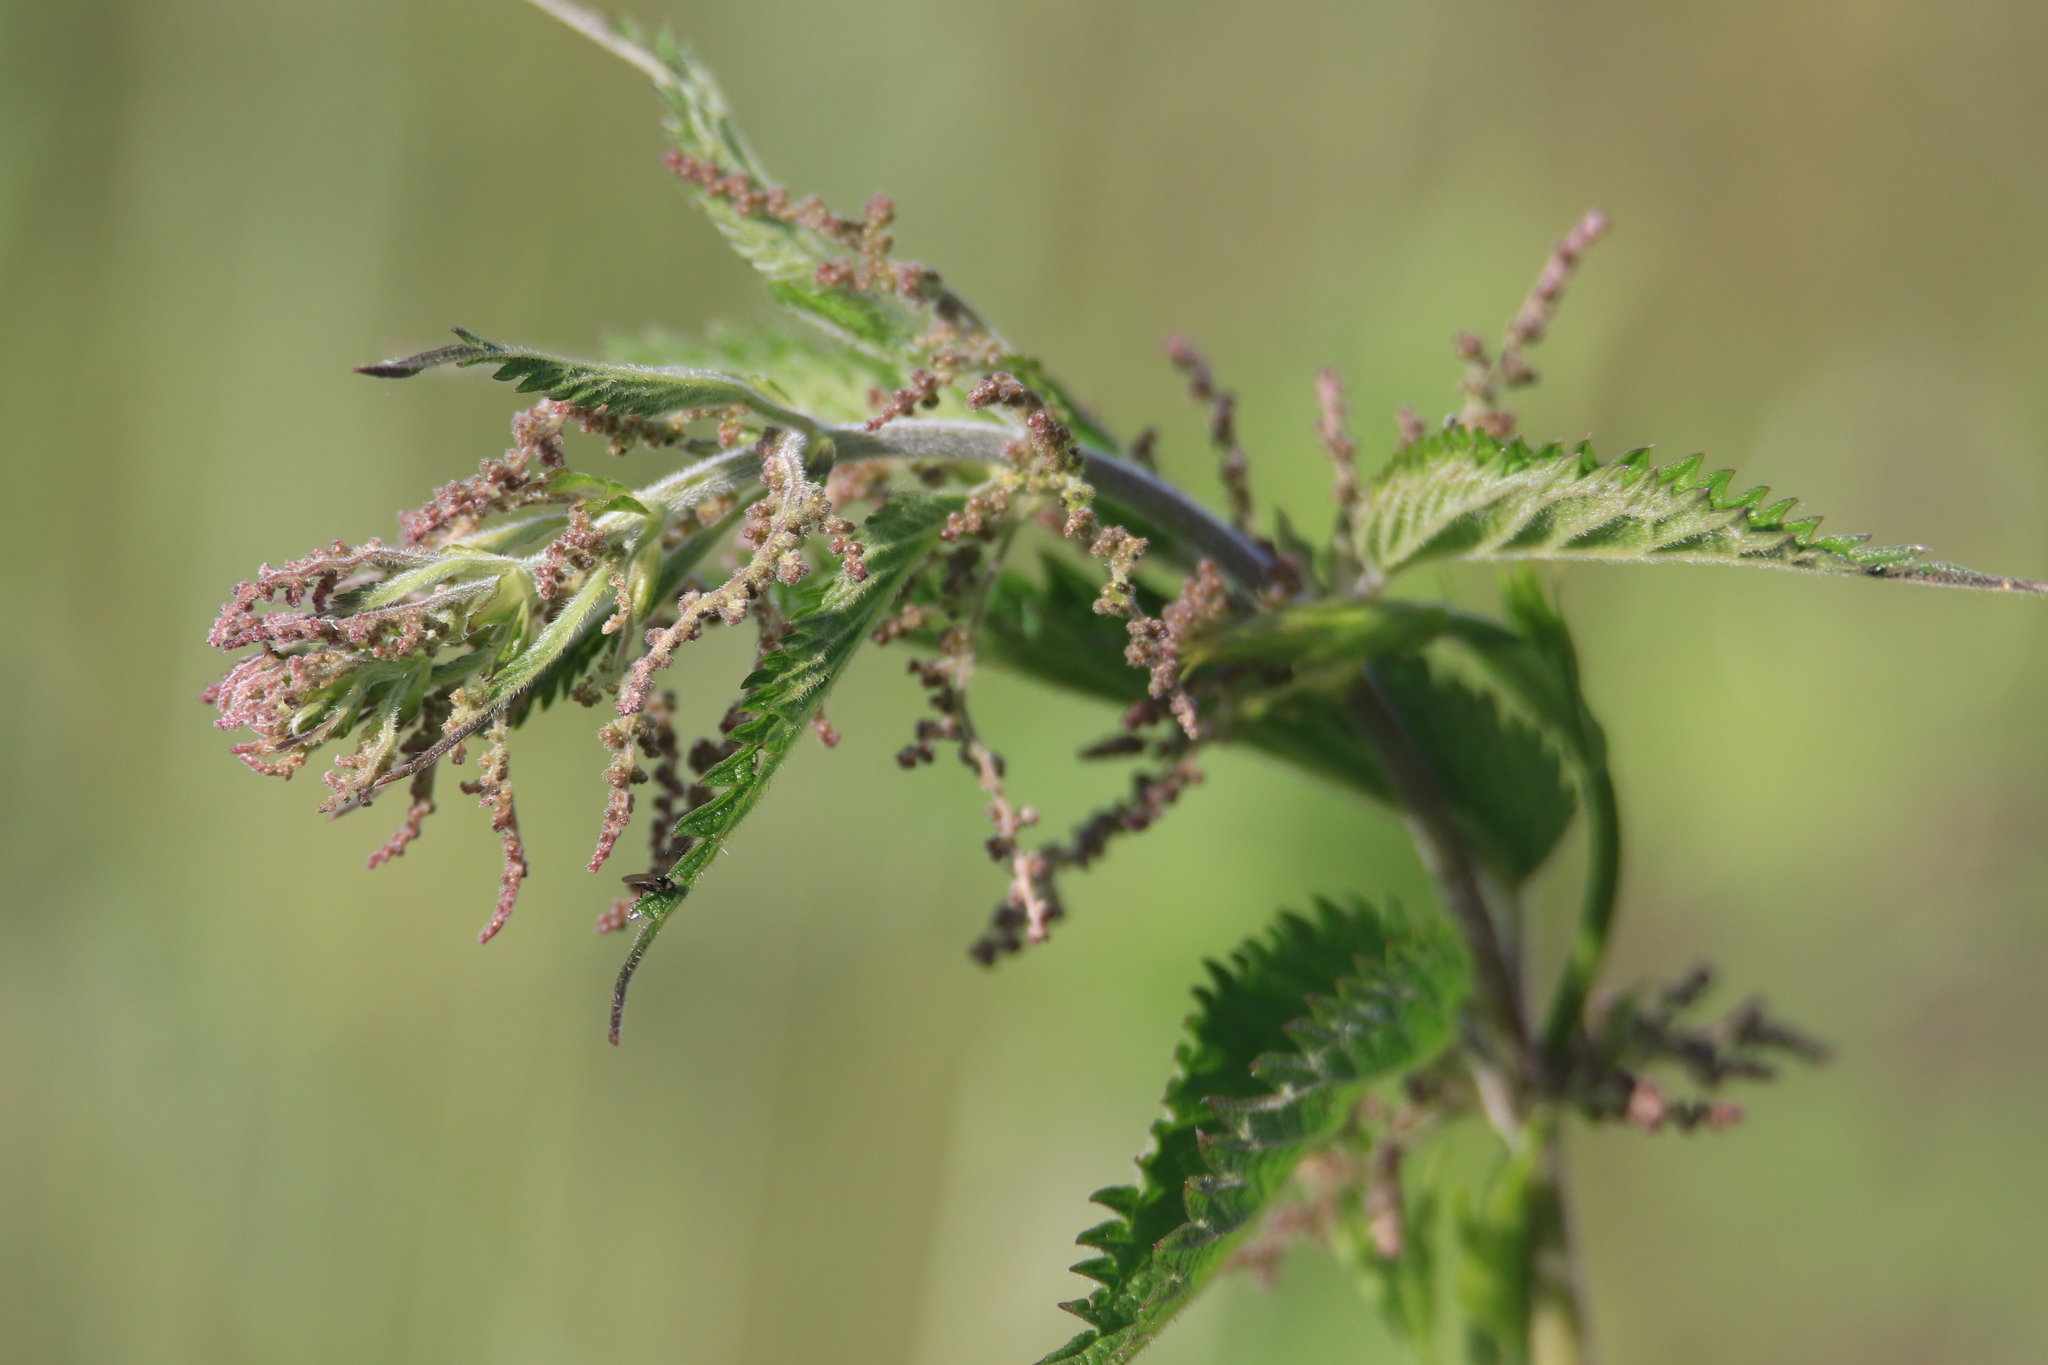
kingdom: Plantae
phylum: Tracheophyta
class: Magnoliopsida
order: Rosales
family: Urticaceae
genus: Urtica
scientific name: Urtica dioica
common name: Common nettle
